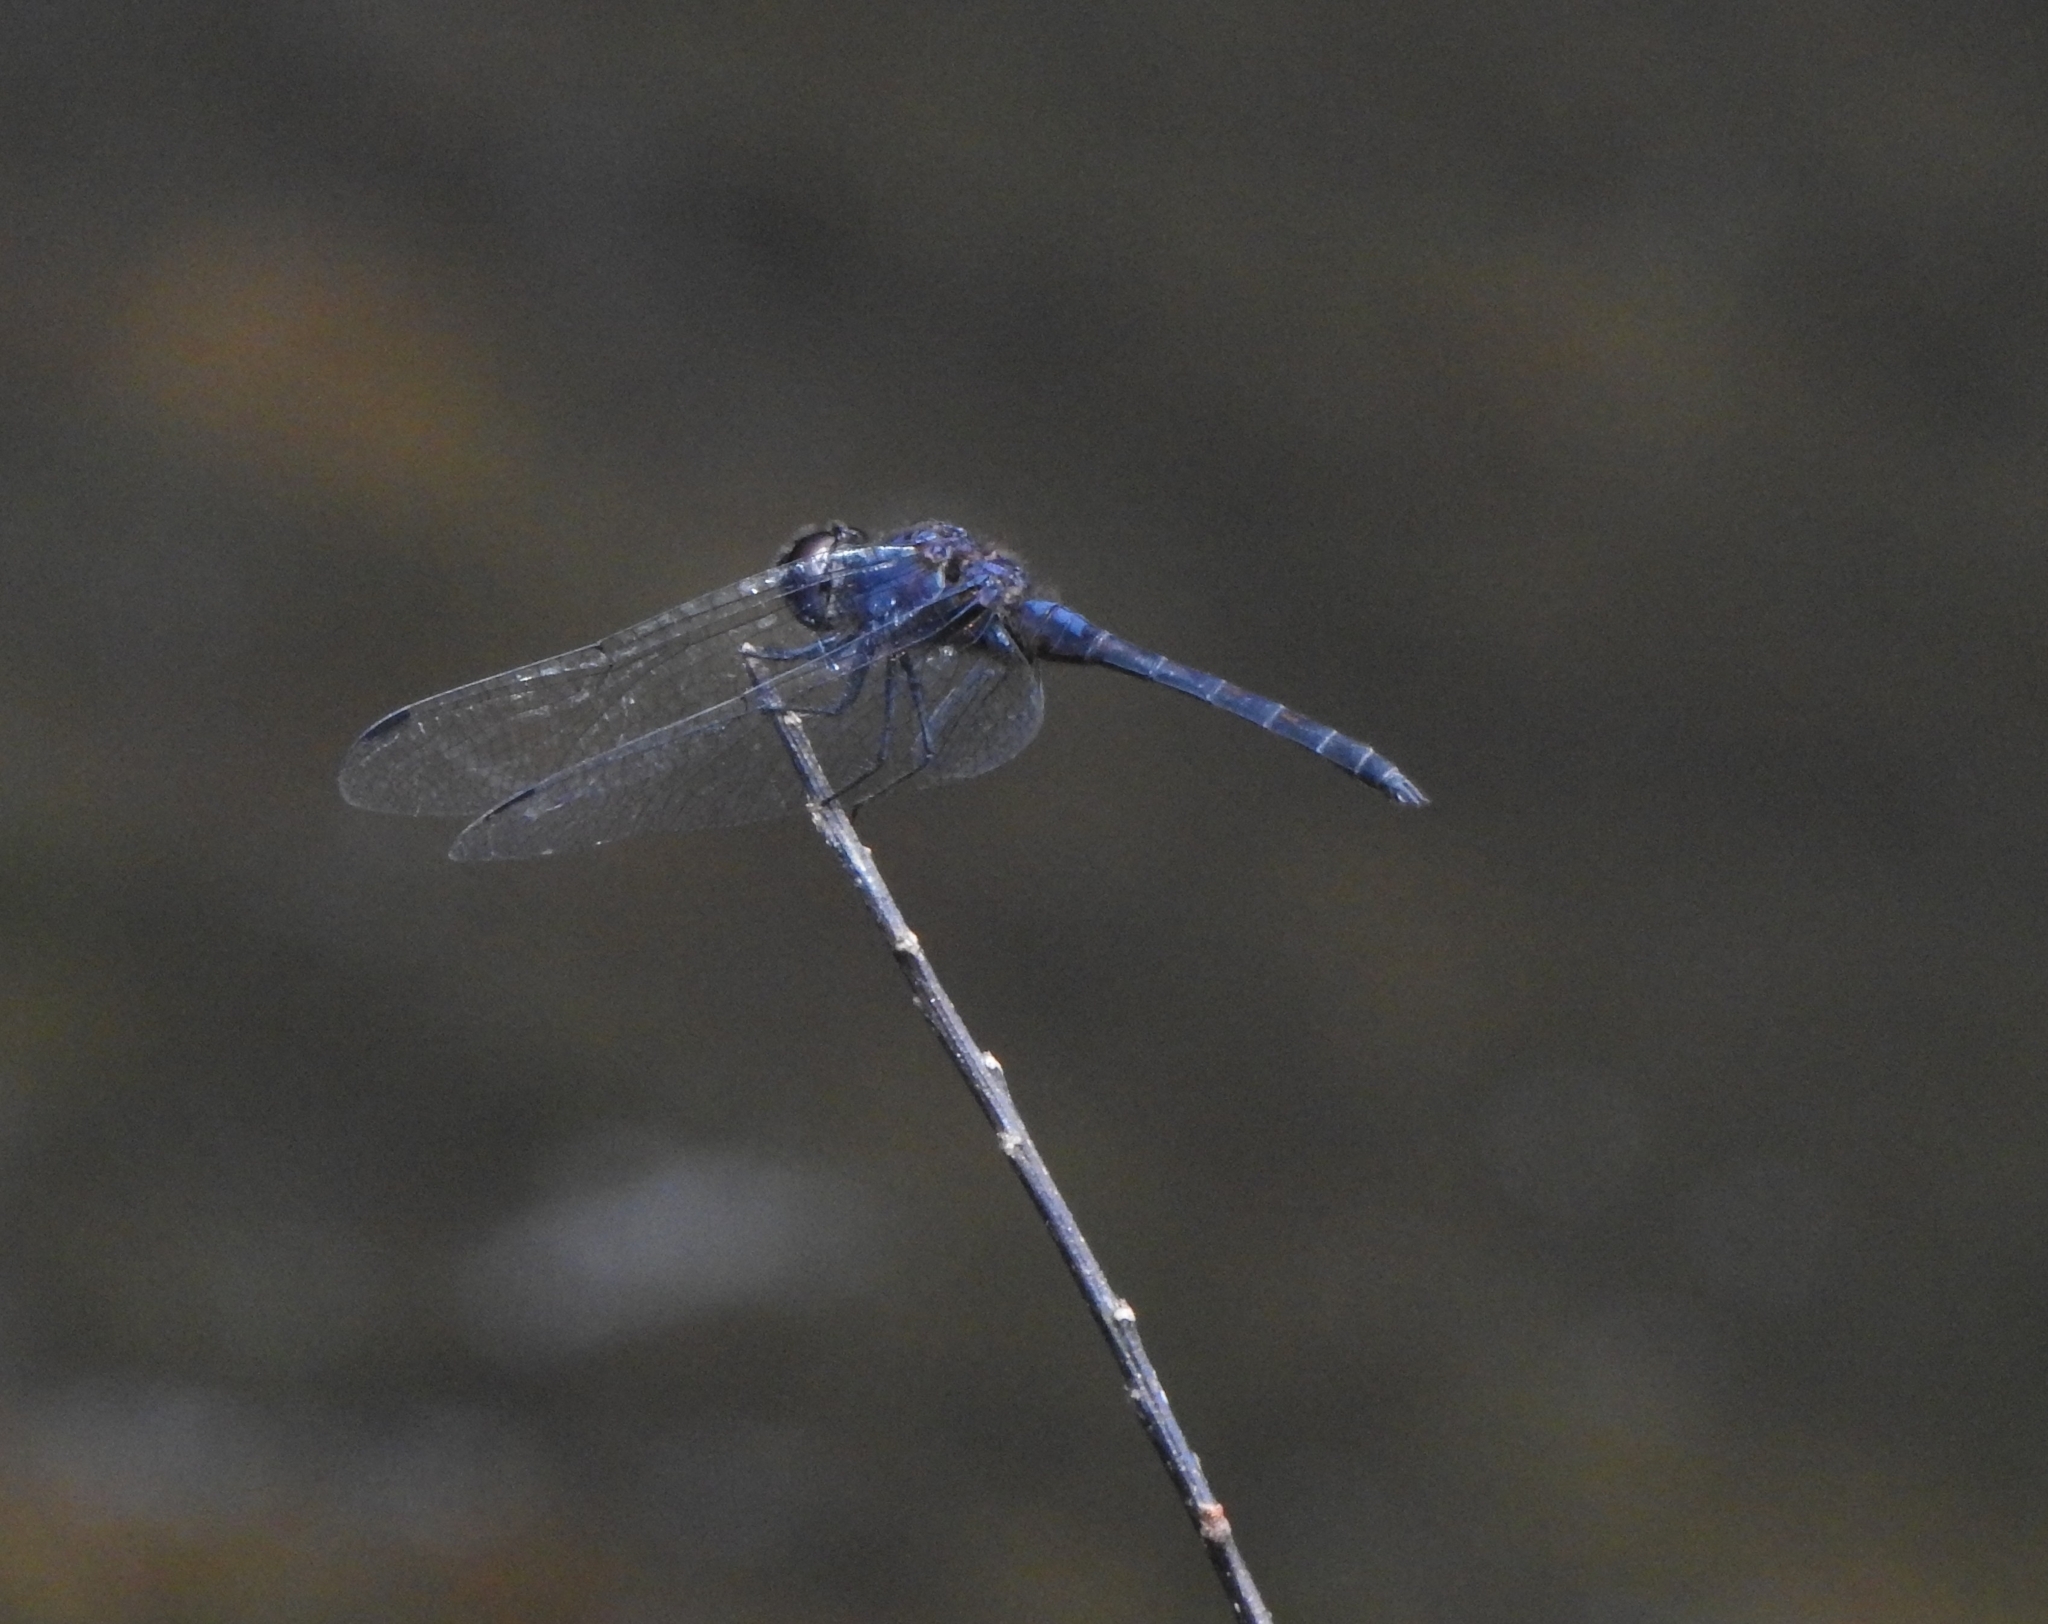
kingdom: Animalia
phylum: Arthropoda
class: Insecta
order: Odonata
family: Libellulidae
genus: Trithemis
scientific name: Trithemis festiva
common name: Indigo dropwing
